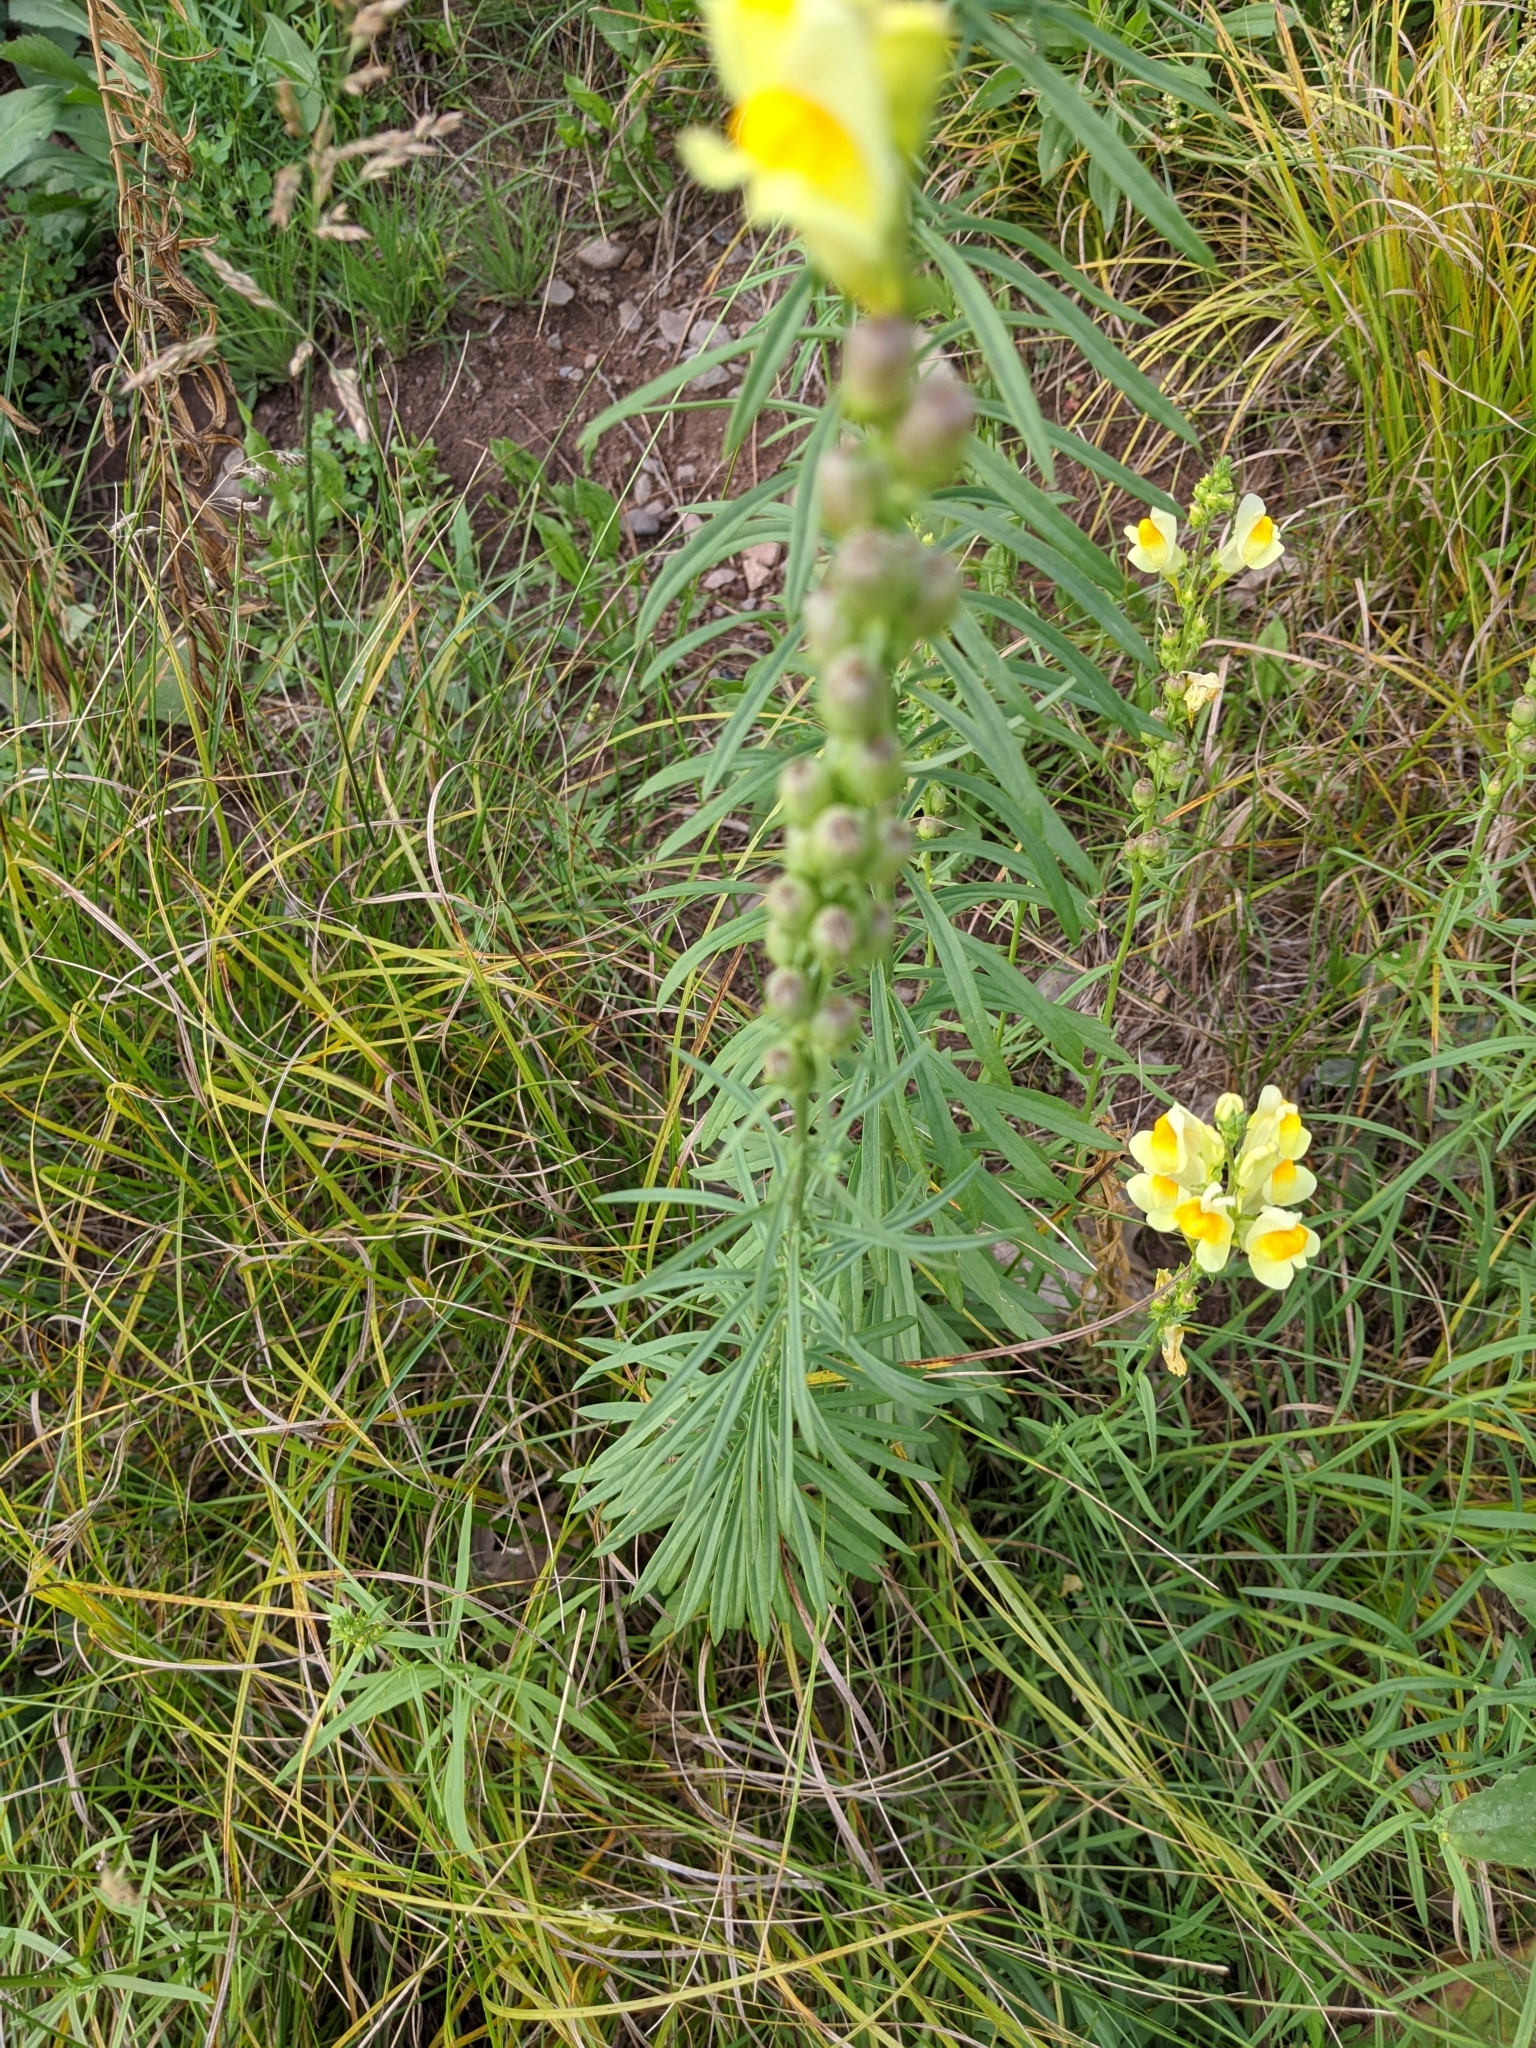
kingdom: Plantae
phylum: Tracheophyta
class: Magnoliopsida
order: Lamiales
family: Plantaginaceae
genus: Linaria
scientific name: Linaria vulgaris
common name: Butter and eggs
